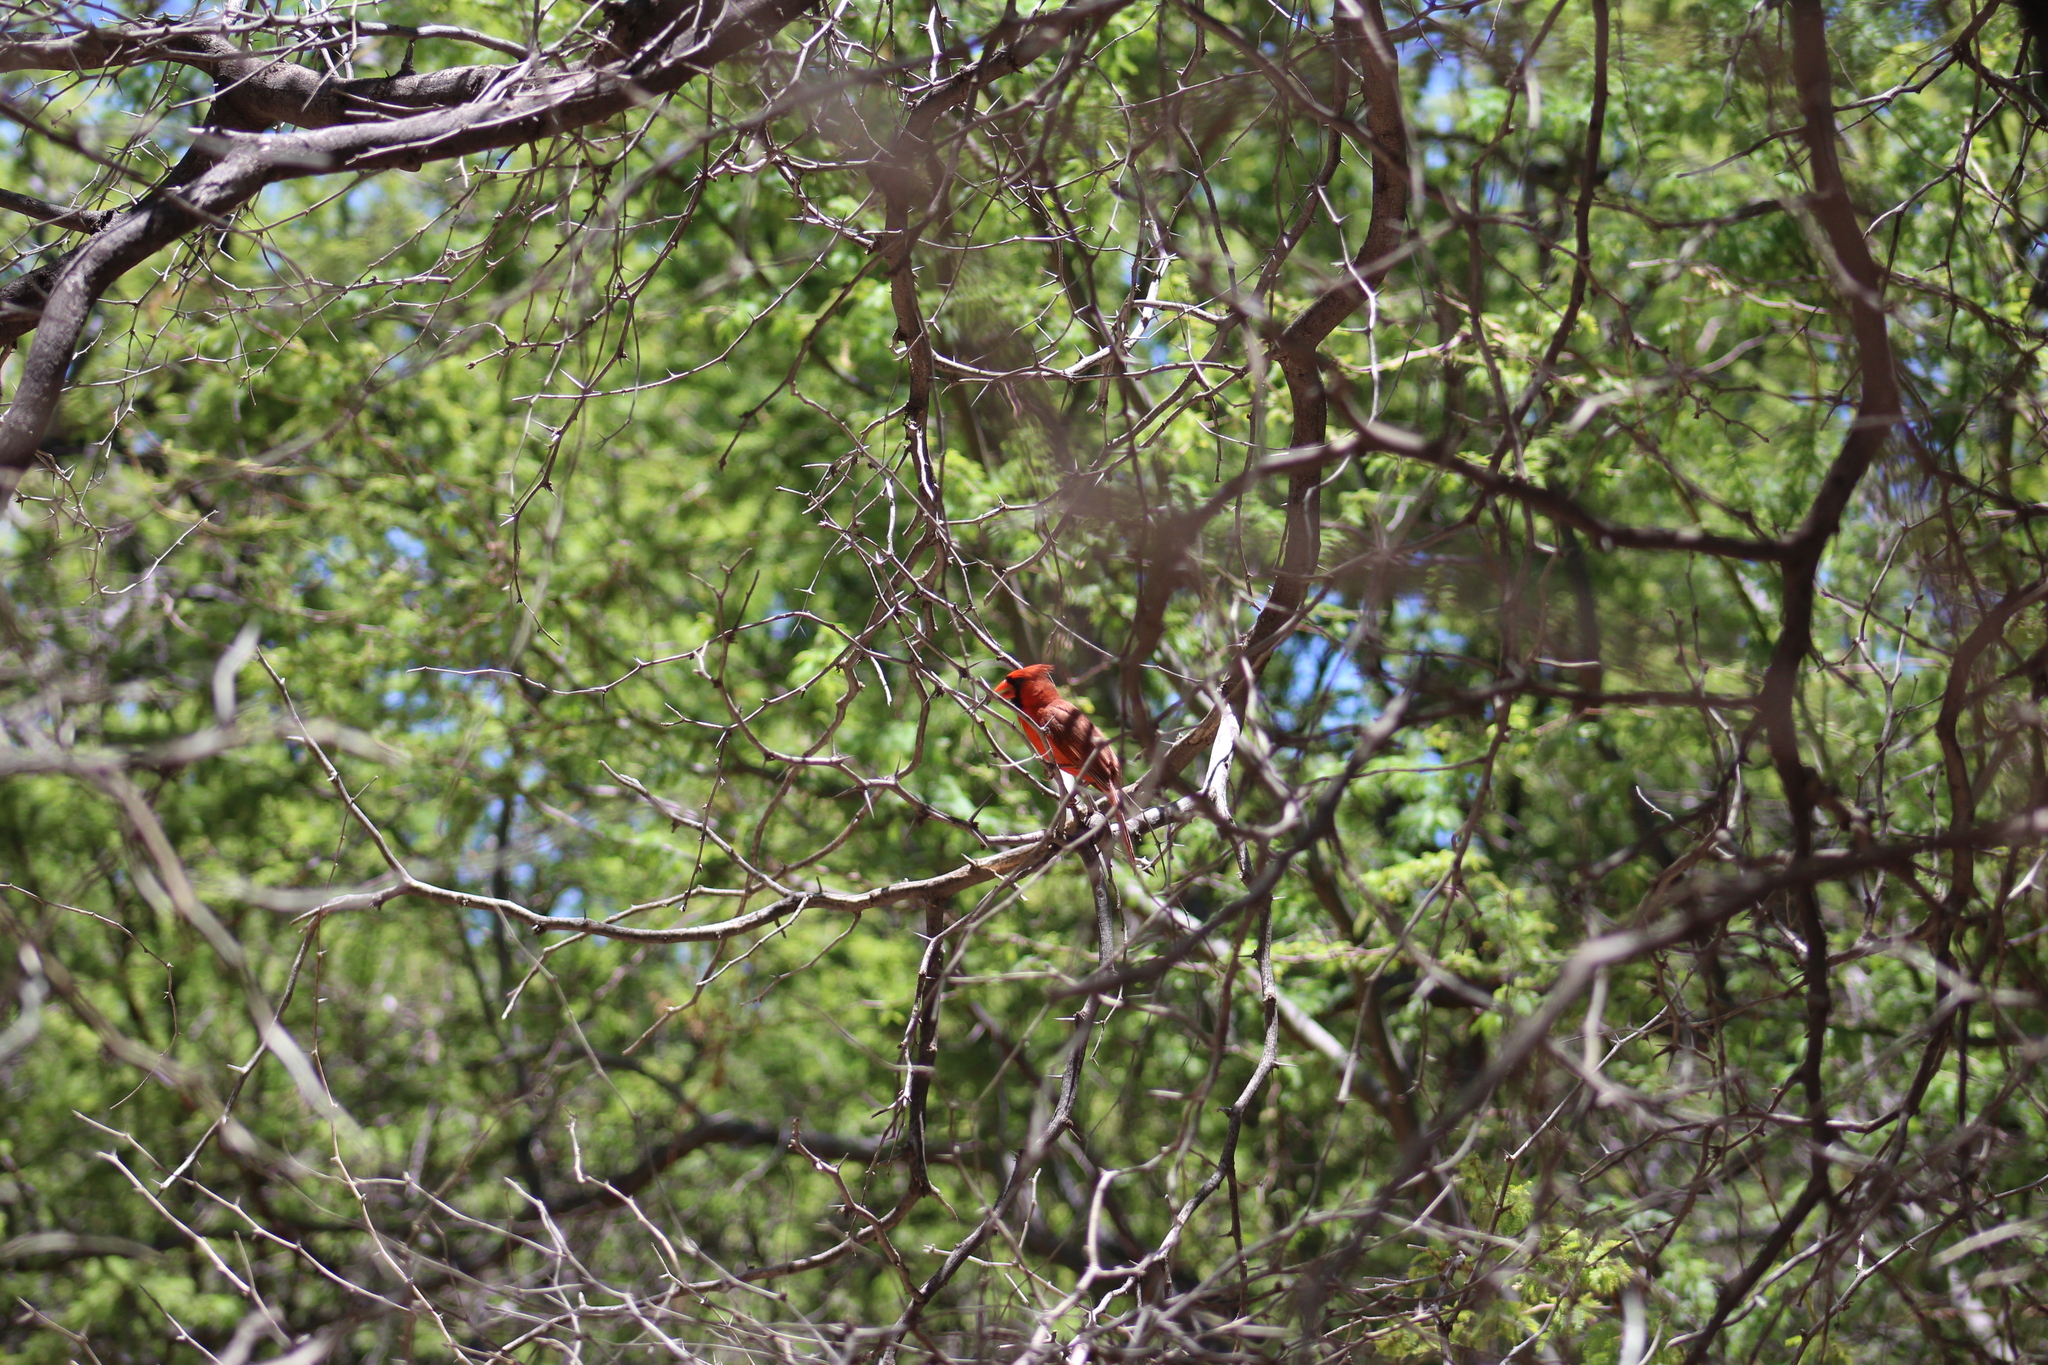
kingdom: Animalia
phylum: Chordata
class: Aves
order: Passeriformes
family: Cardinalidae
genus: Cardinalis
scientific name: Cardinalis cardinalis
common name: Northern cardinal
